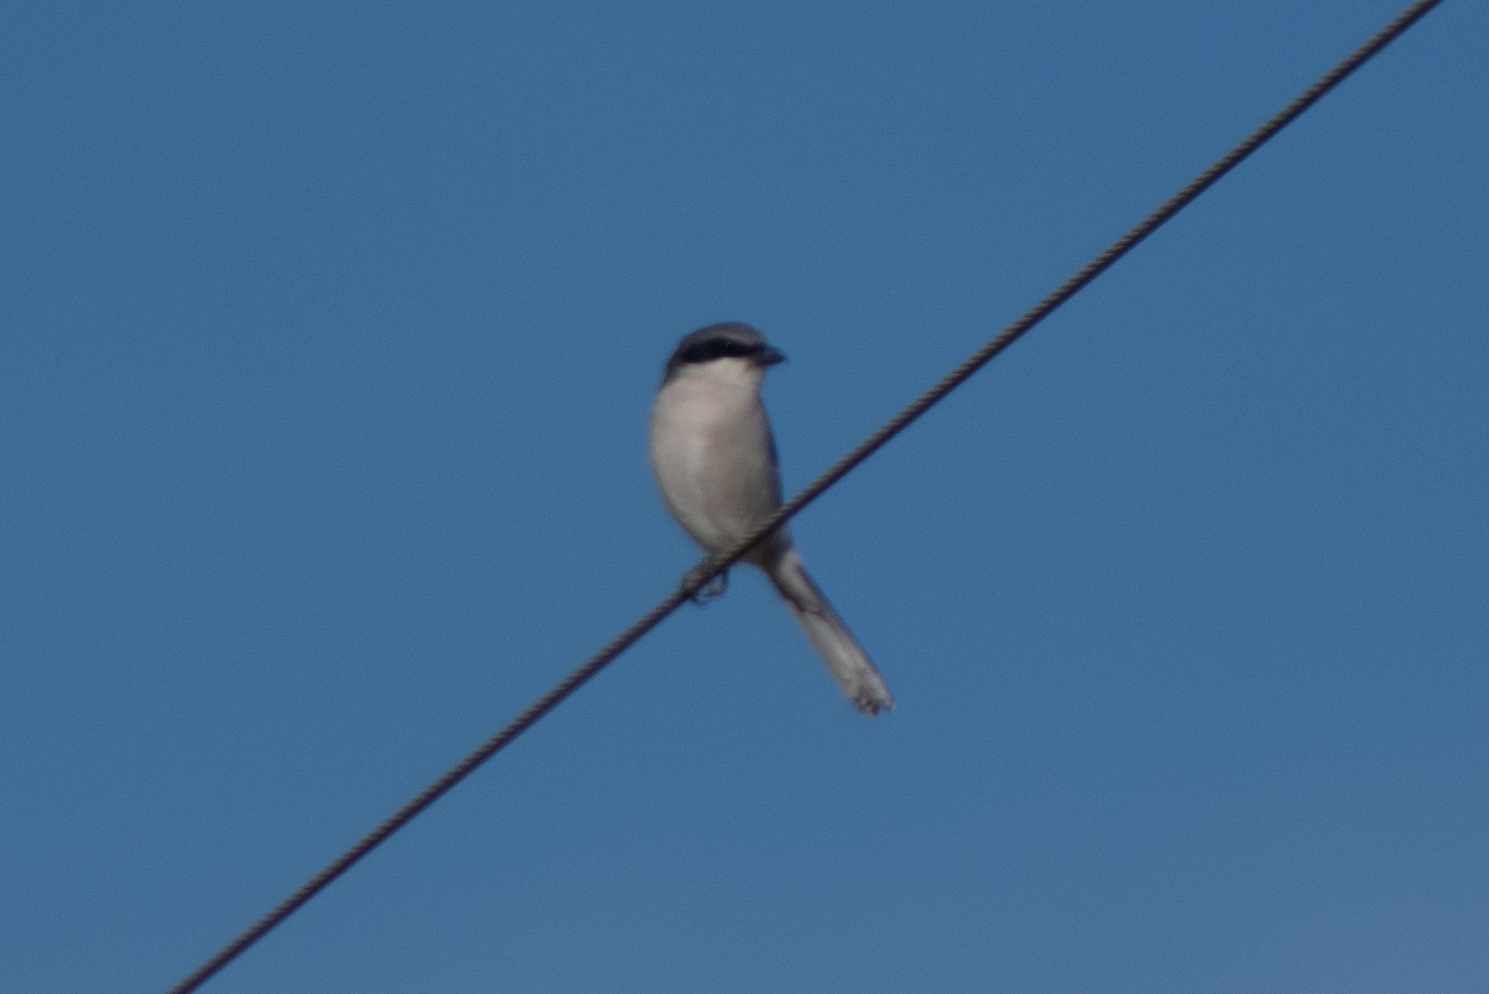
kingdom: Animalia
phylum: Chordata
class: Aves
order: Passeriformes
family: Laniidae
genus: Lanius
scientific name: Lanius ludovicianus
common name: Loggerhead shrike
